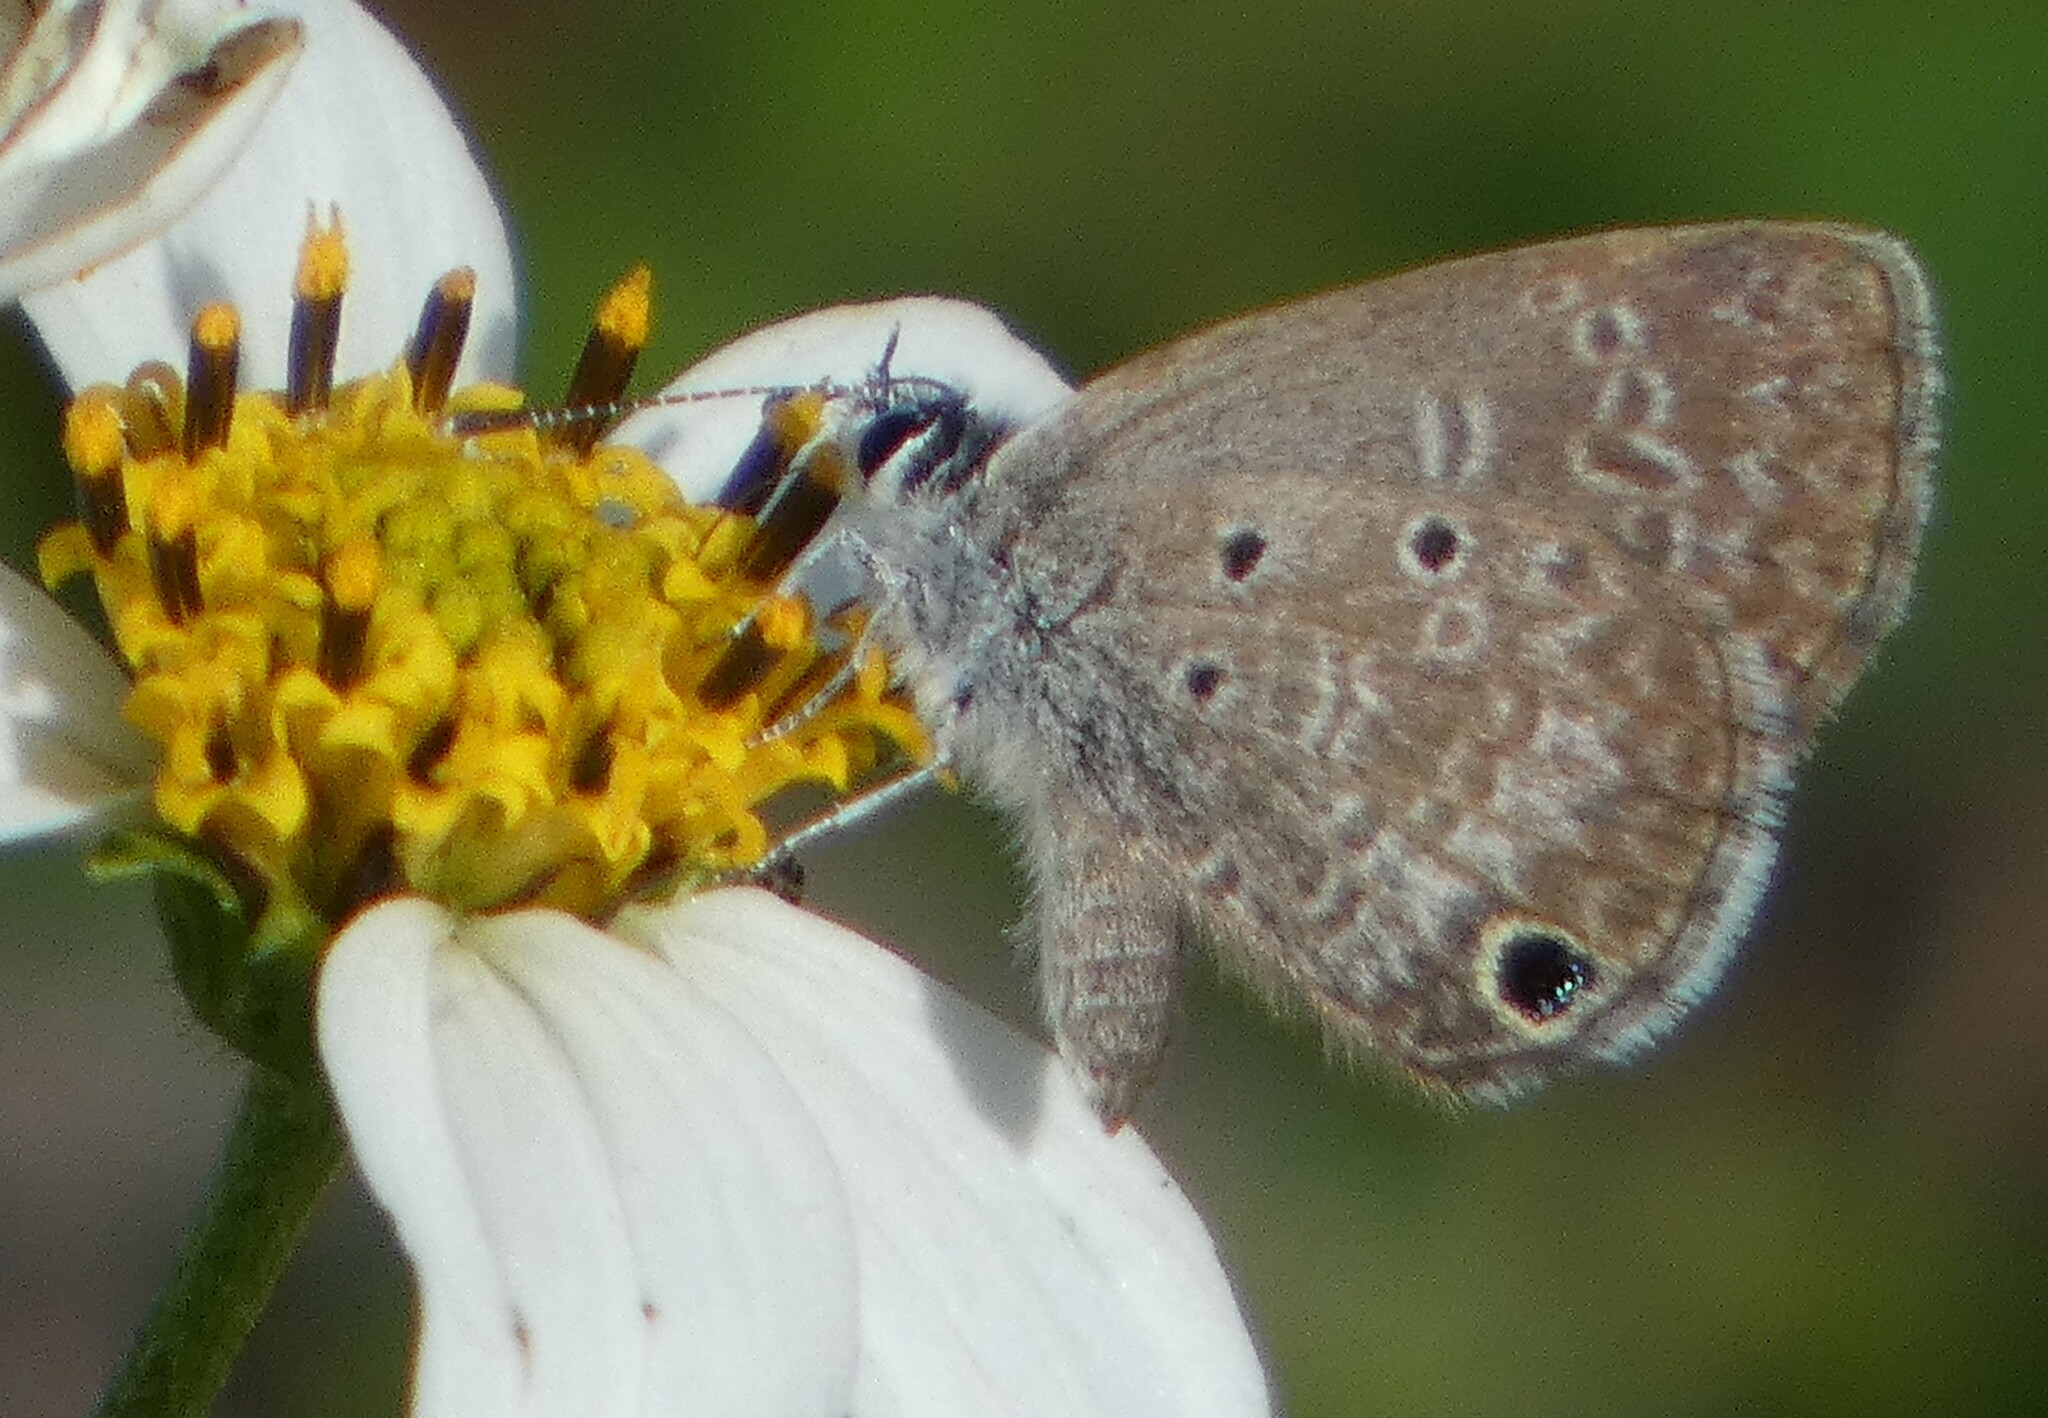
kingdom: Animalia
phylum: Arthropoda
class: Insecta
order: Lepidoptera
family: Lycaenidae
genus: Hemiargus
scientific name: Hemiargus ceraunus
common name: Ceraunus blue
